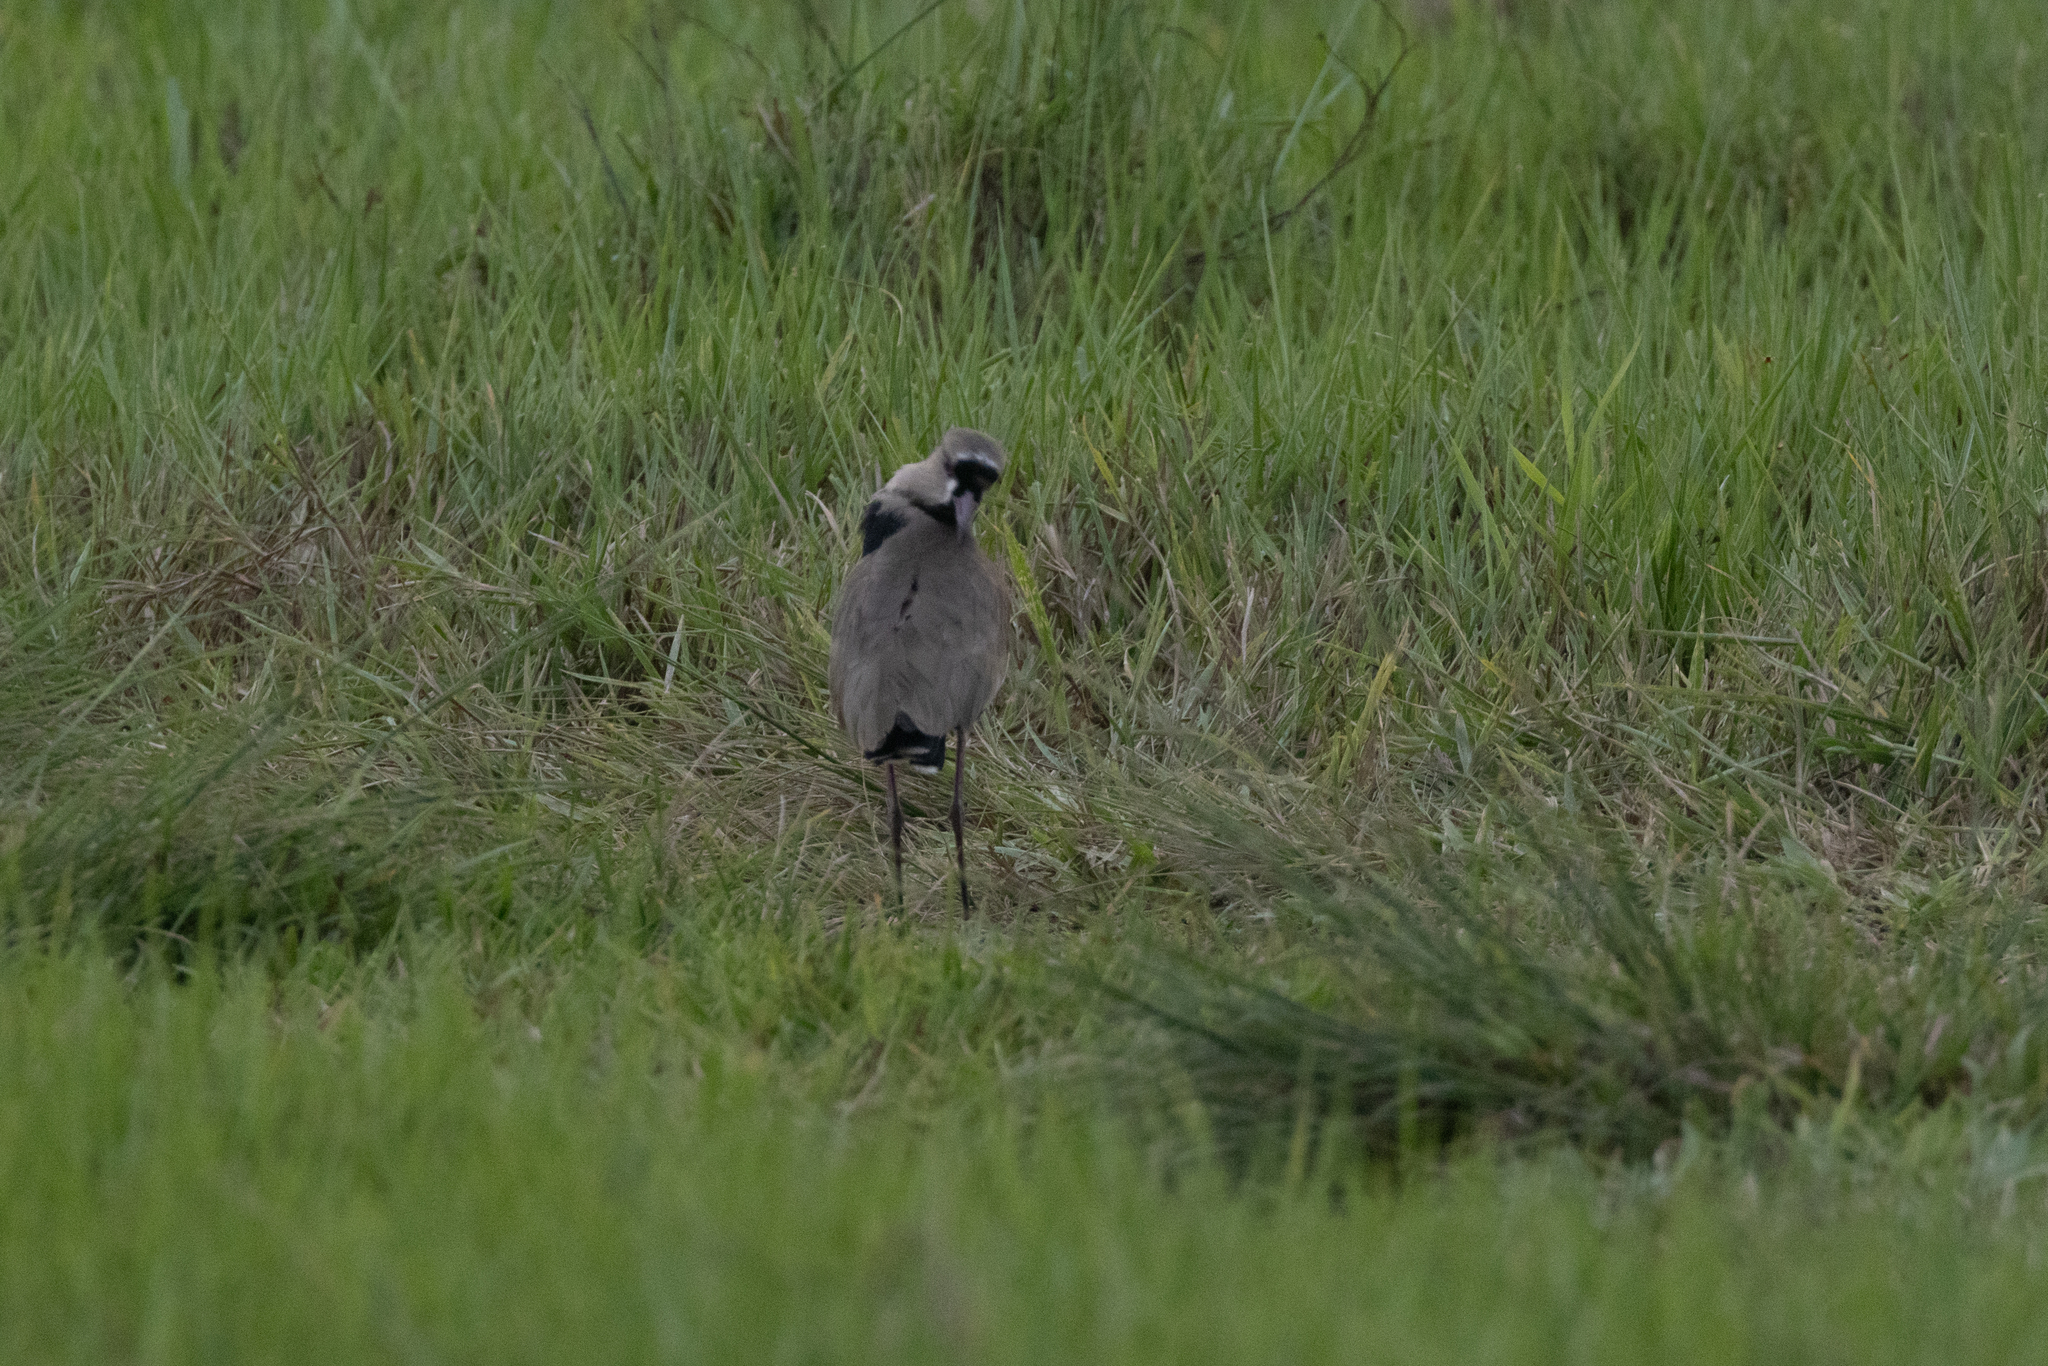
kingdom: Animalia
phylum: Chordata
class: Aves
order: Charadriiformes
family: Charadriidae
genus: Vanellus
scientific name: Vanellus chilensis
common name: Southern lapwing
